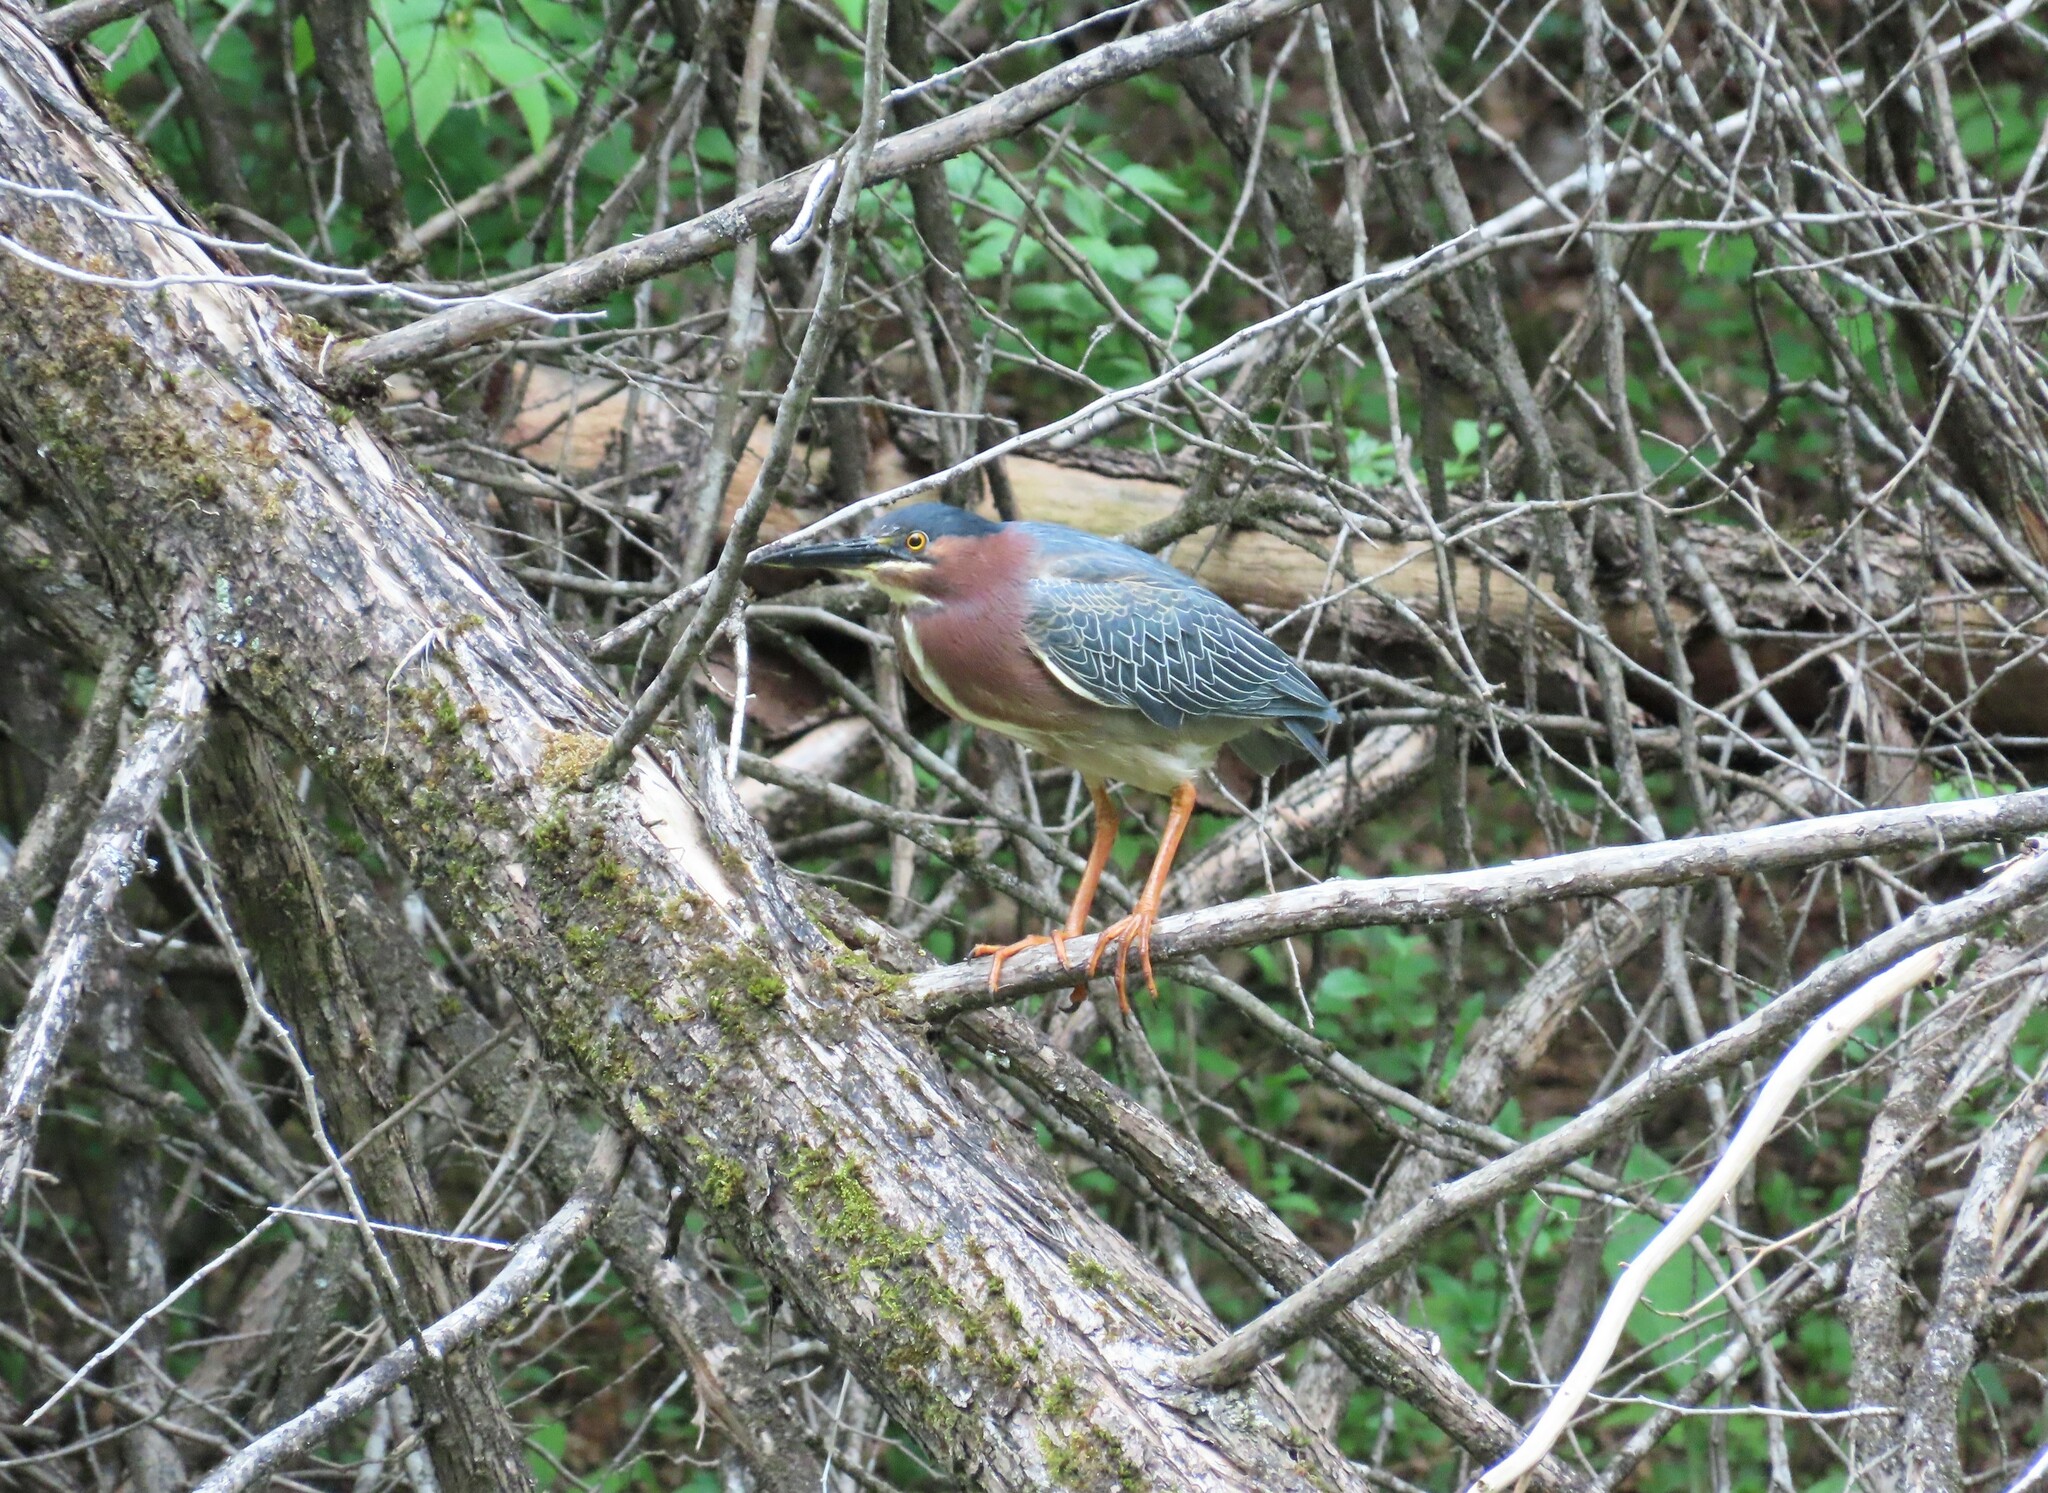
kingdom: Animalia
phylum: Chordata
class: Aves
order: Pelecaniformes
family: Ardeidae
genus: Butorides
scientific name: Butorides virescens
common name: Green heron
